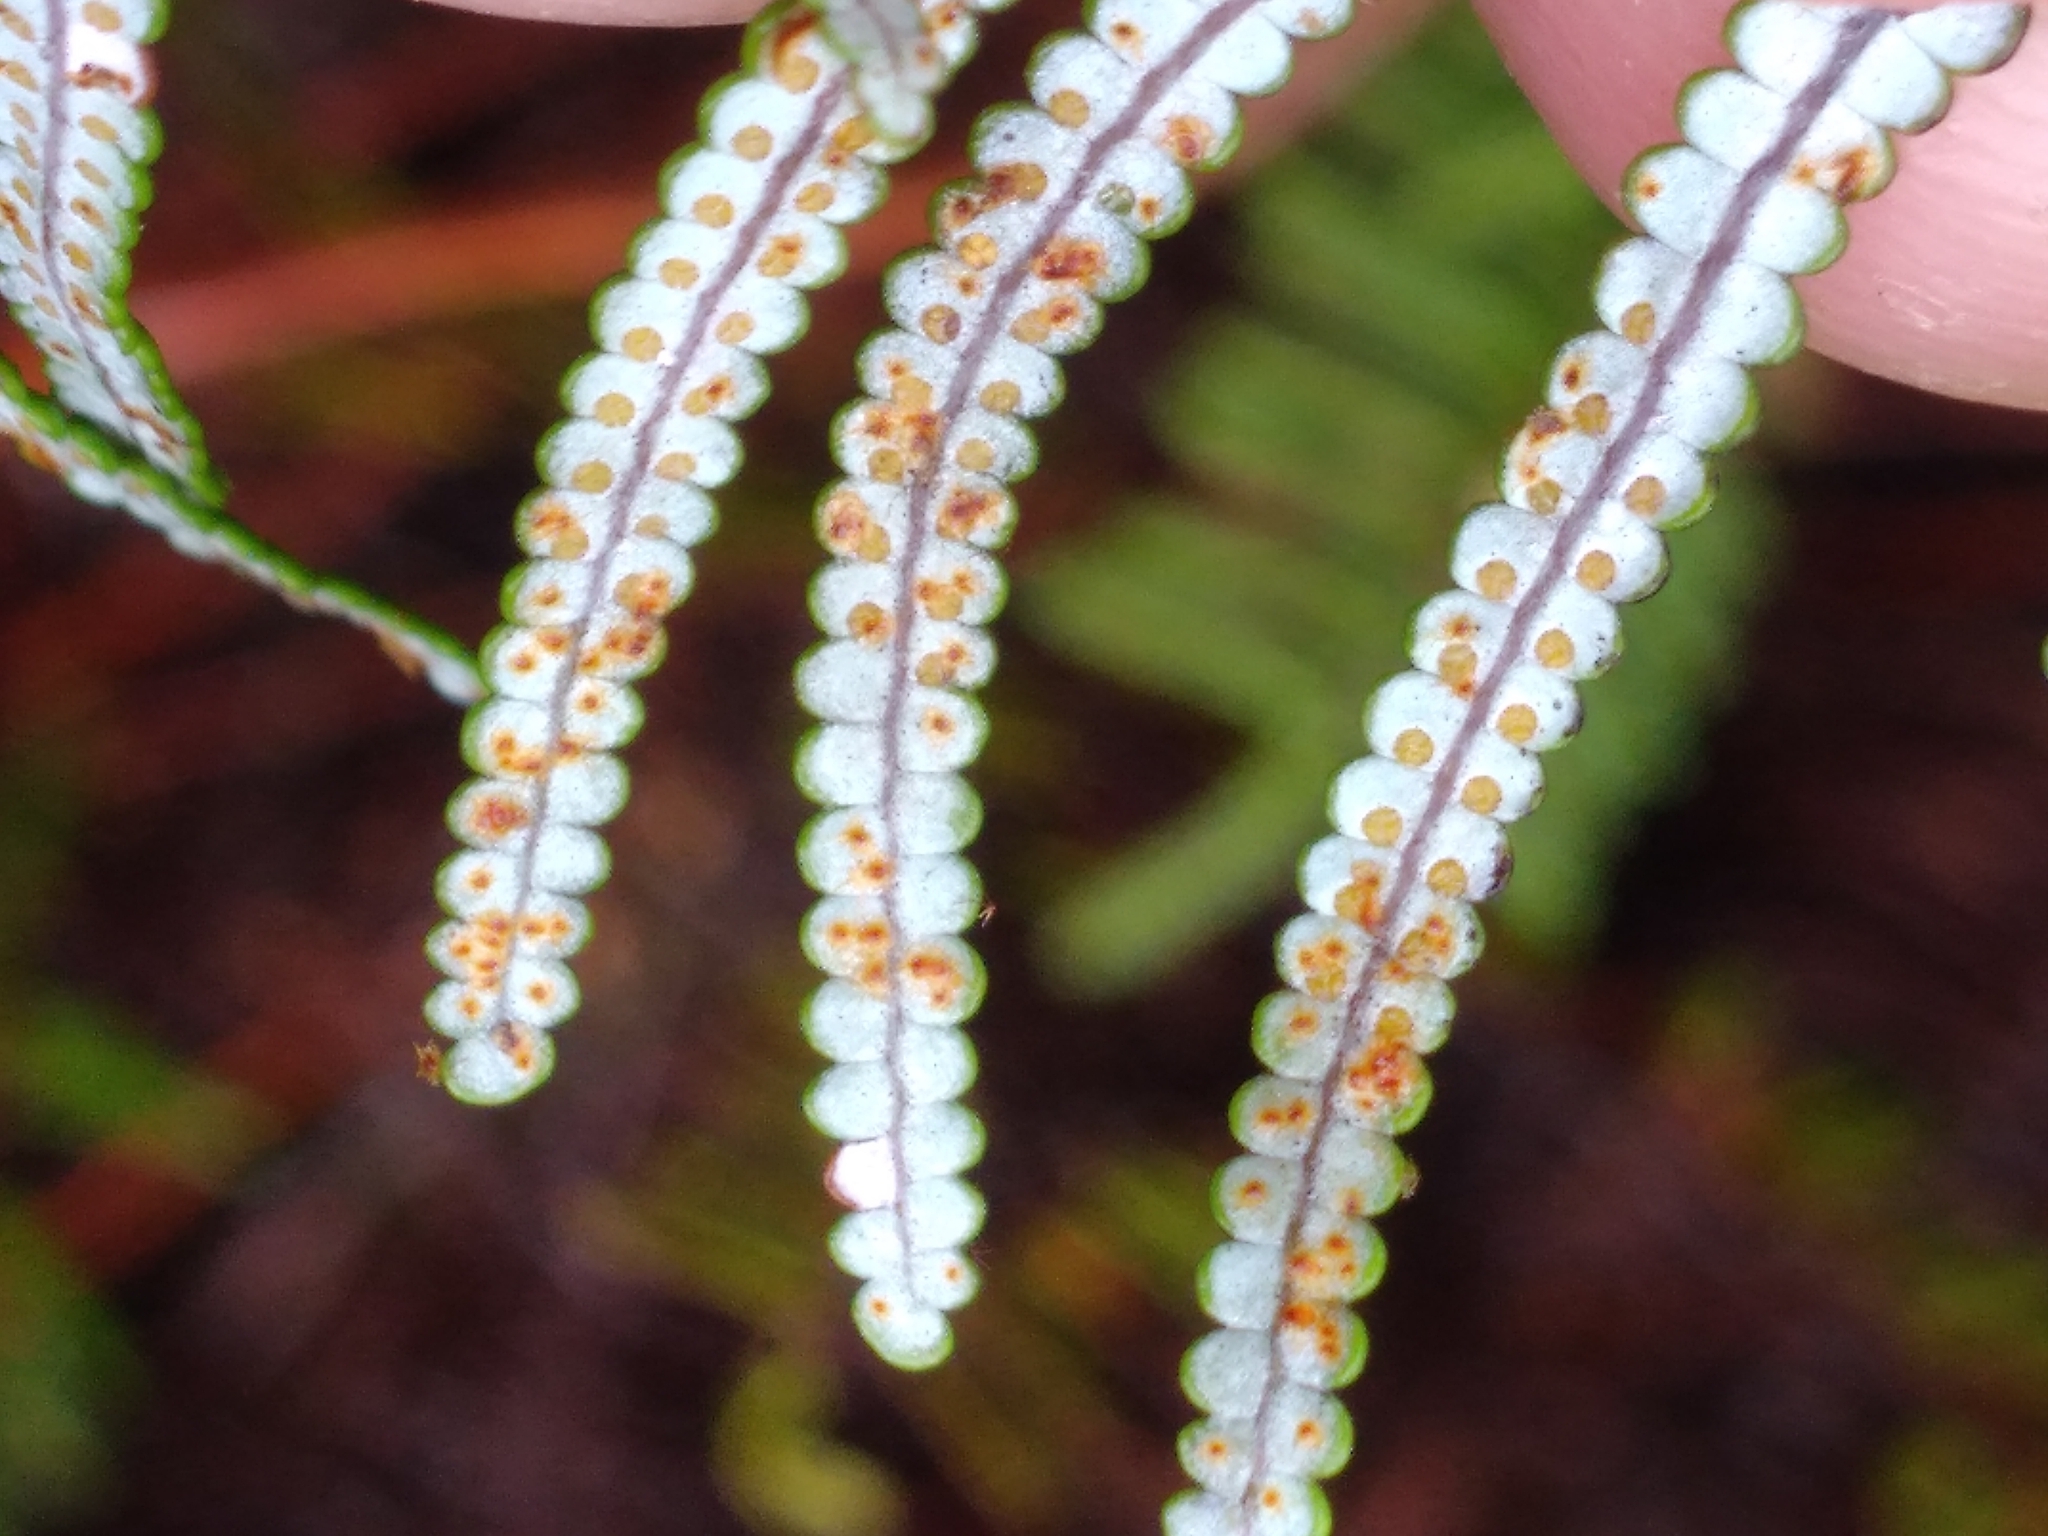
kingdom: Plantae
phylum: Tracheophyta
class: Polypodiopsida
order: Gleicheniales
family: Gleicheniaceae
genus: Gleichenia
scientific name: Gleichenia inclusisora
